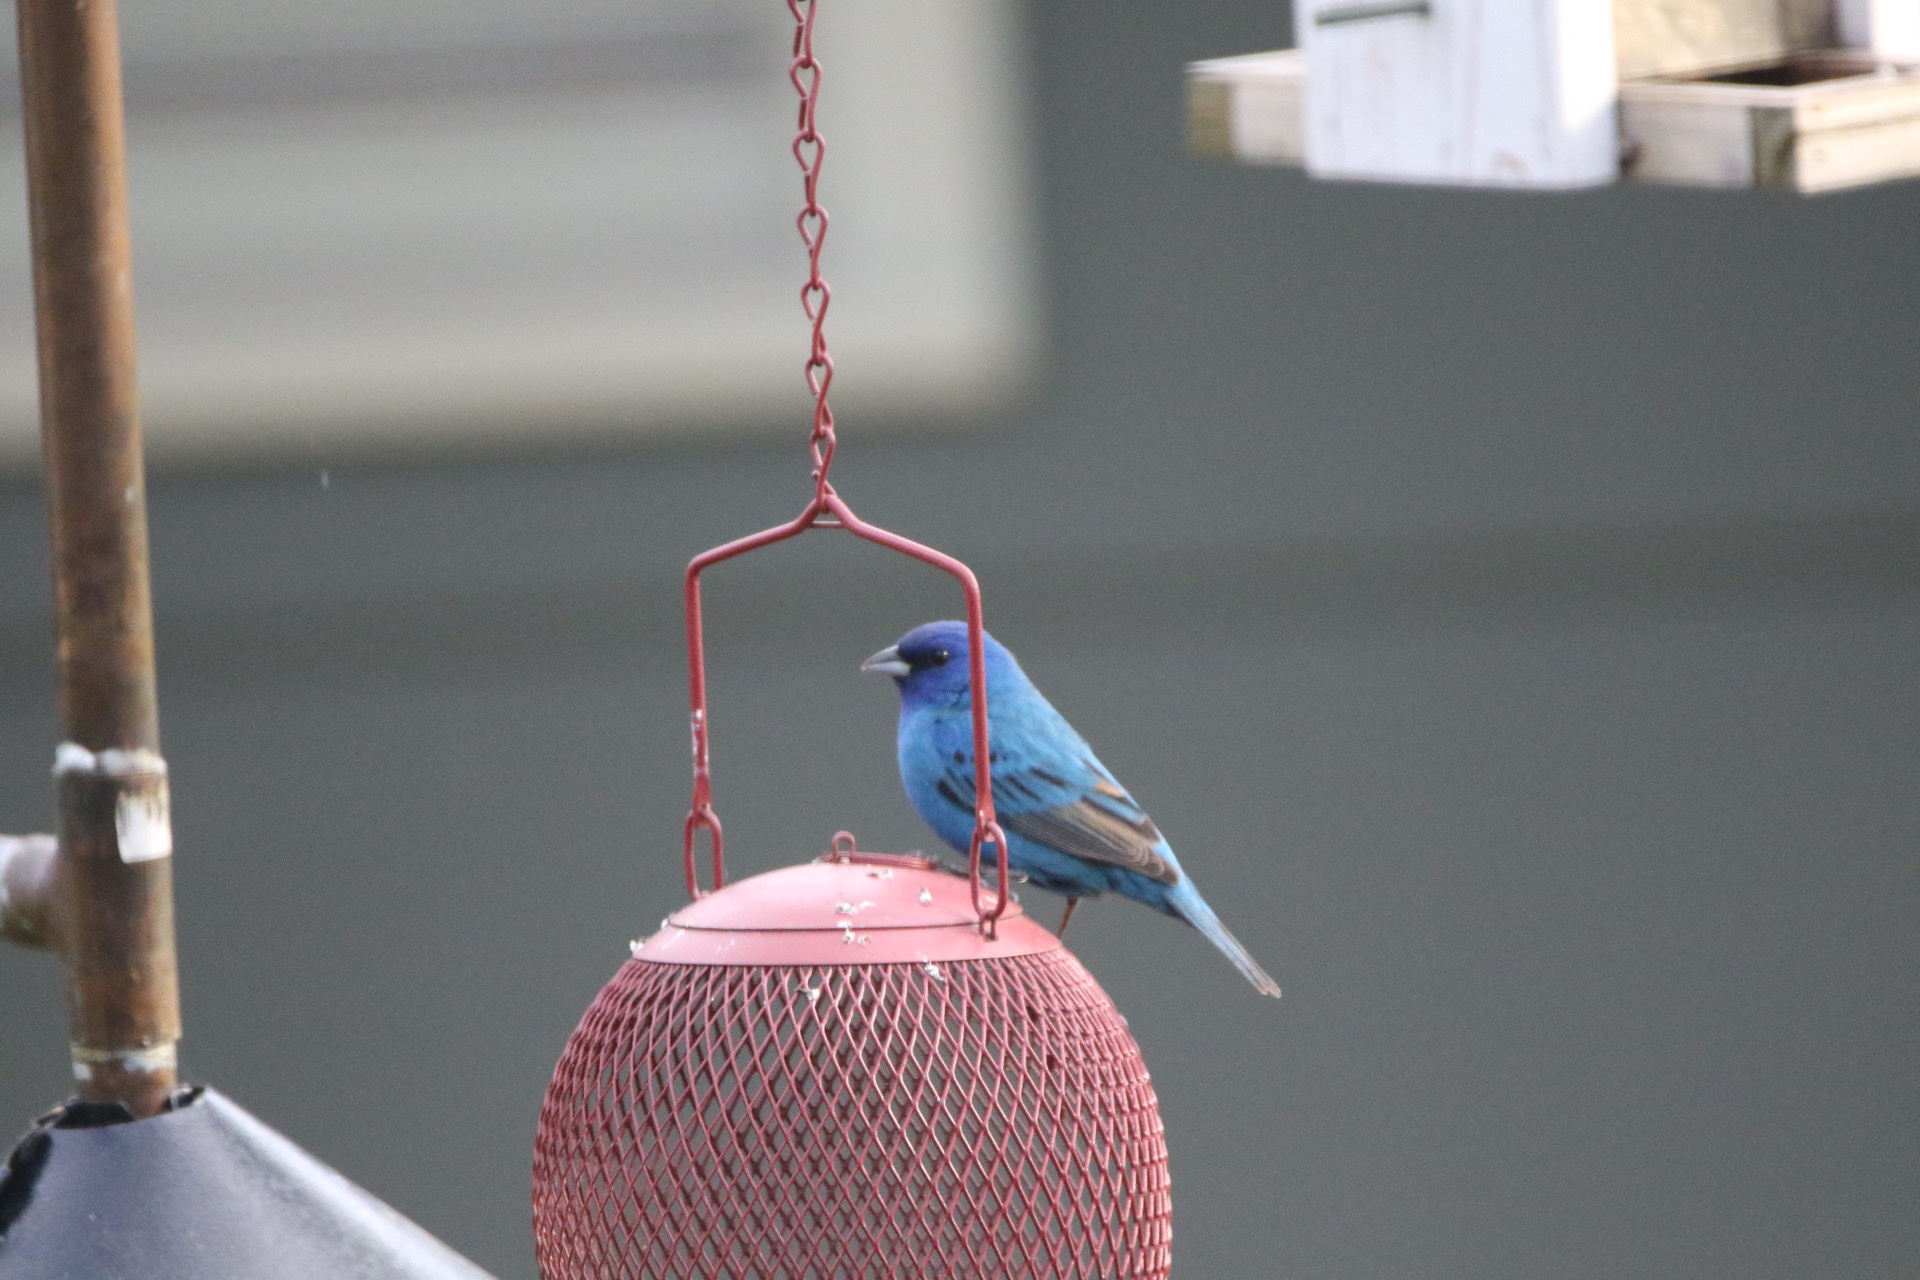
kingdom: Animalia
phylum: Chordata
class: Aves
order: Passeriformes
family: Cardinalidae
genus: Passerina
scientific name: Passerina cyanea
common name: Indigo bunting
